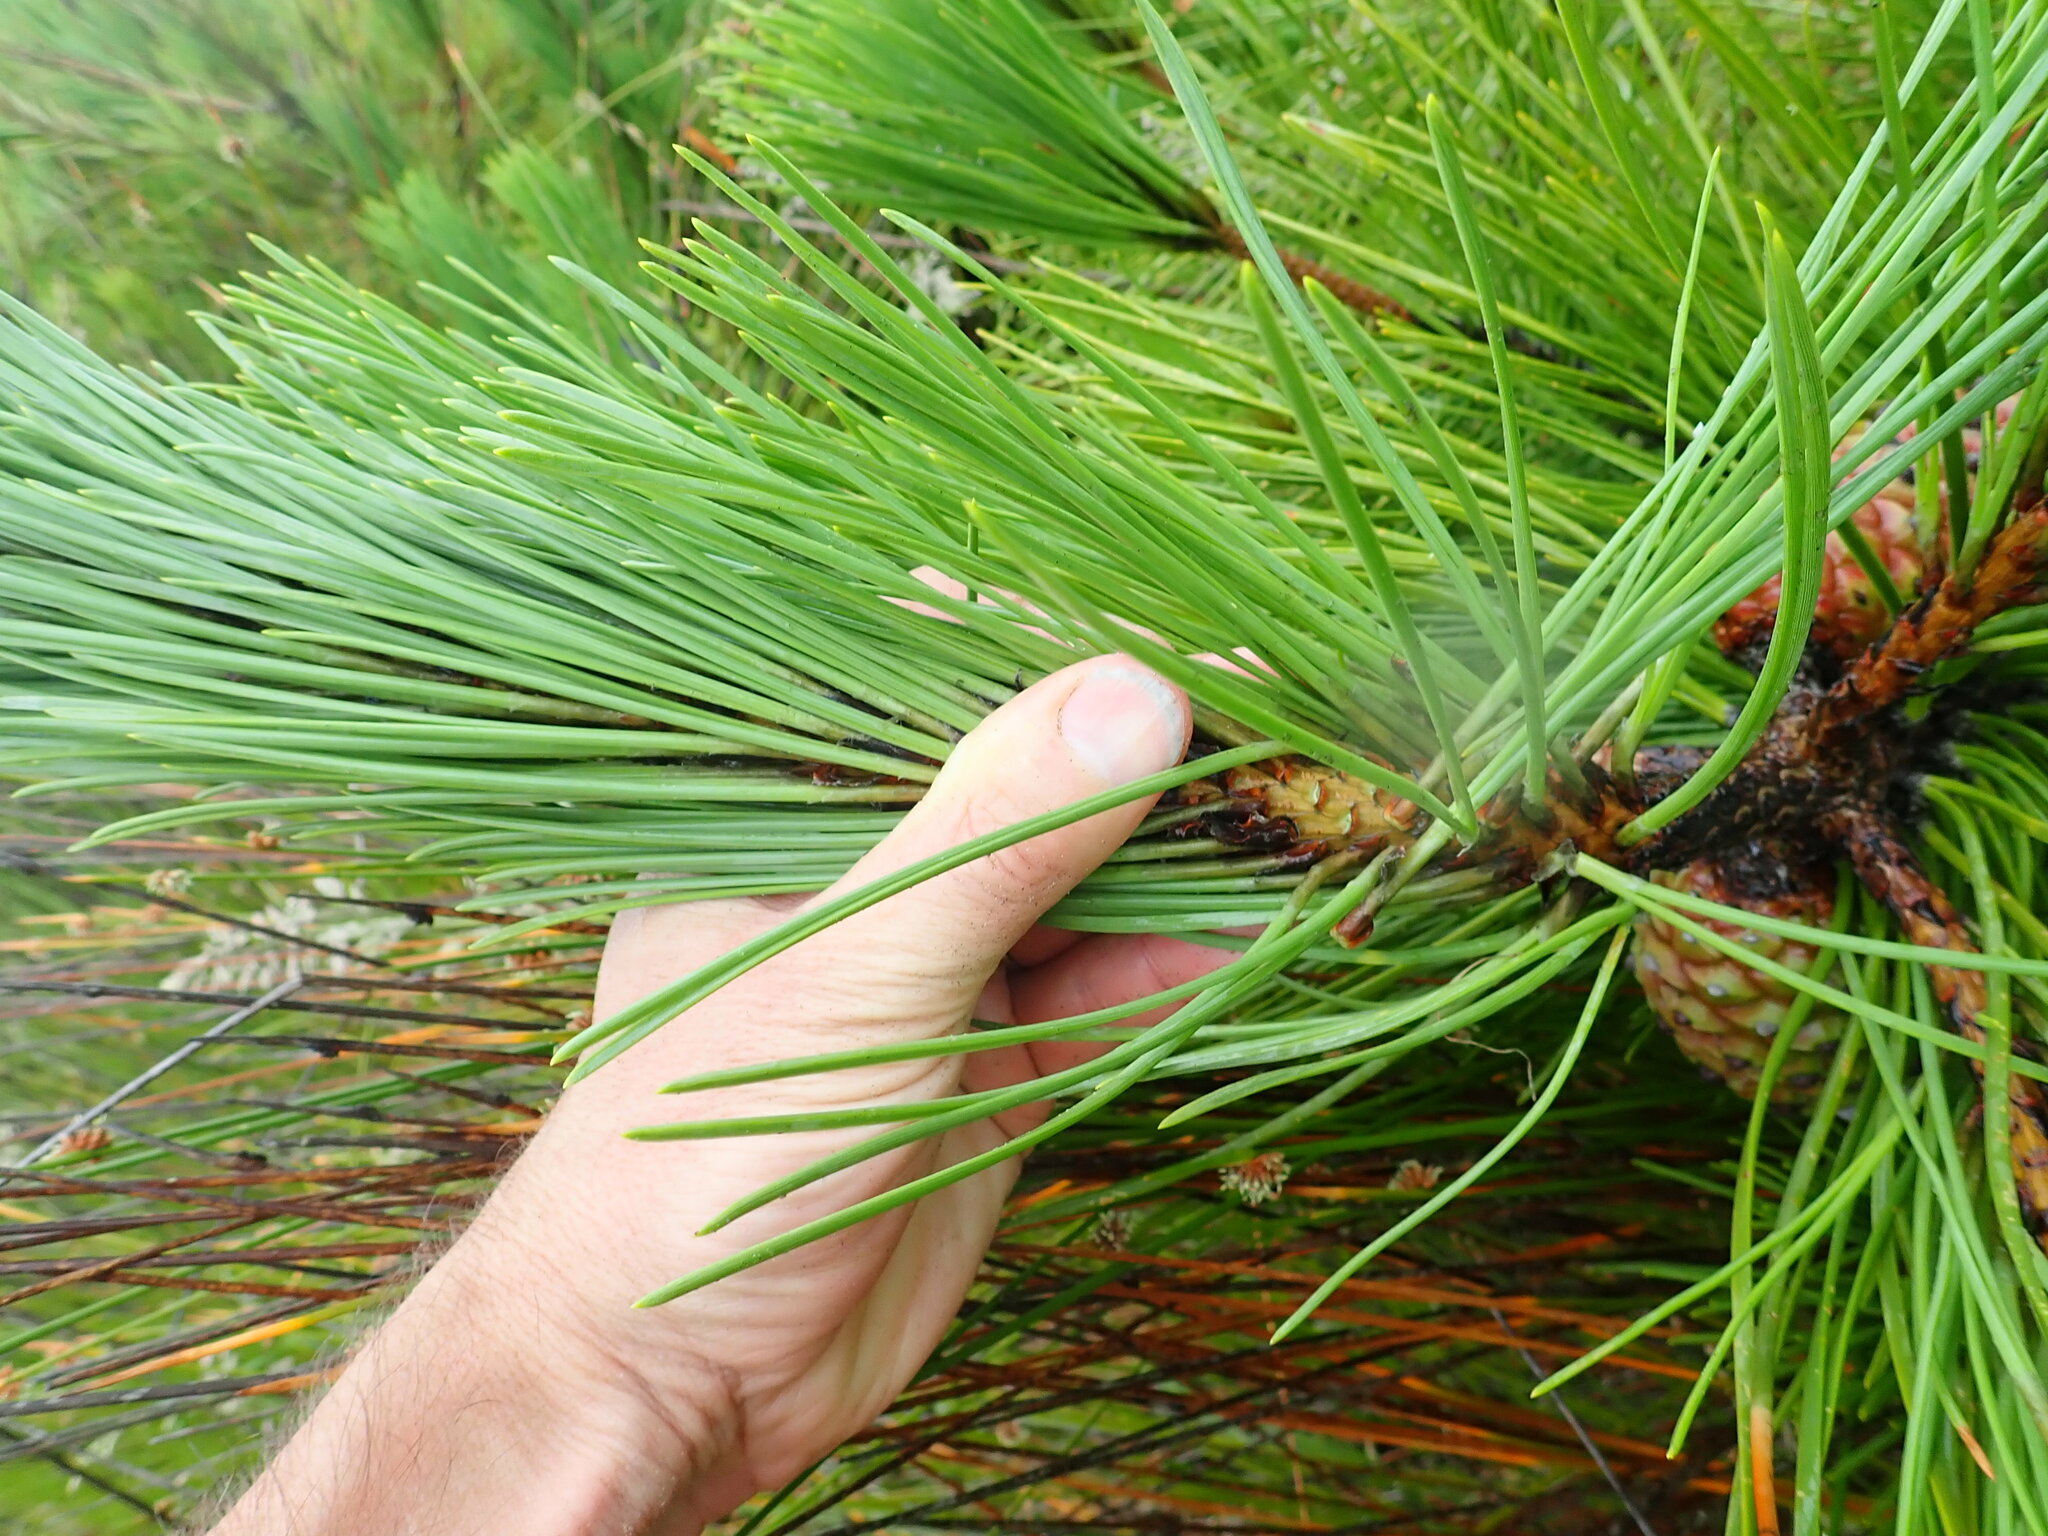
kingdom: Plantae
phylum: Tracheophyta
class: Pinopsida
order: Pinales
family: Pinaceae
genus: Pinus
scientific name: Pinus pinaster
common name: Maritime pine
